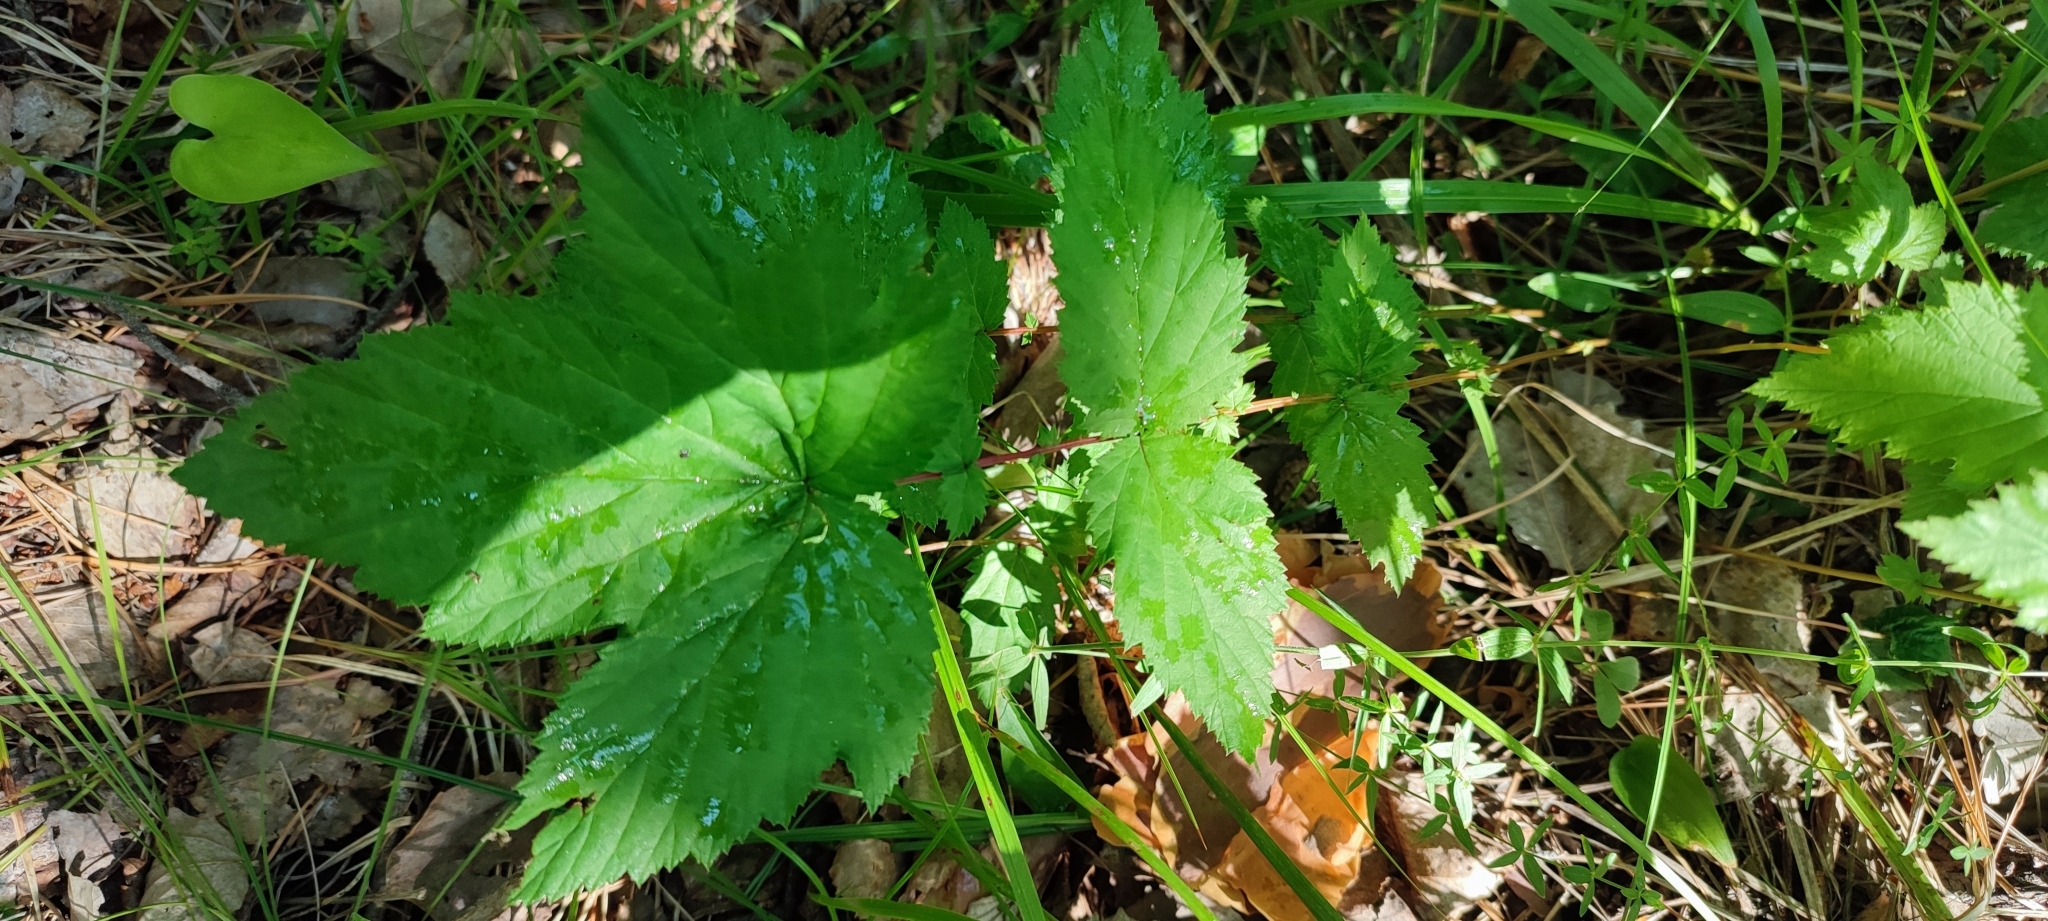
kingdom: Plantae
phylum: Tracheophyta
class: Magnoliopsida
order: Rosales
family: Rosaceae
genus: Filipendula
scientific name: Filipendula ulmaria
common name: Meadowsweet
